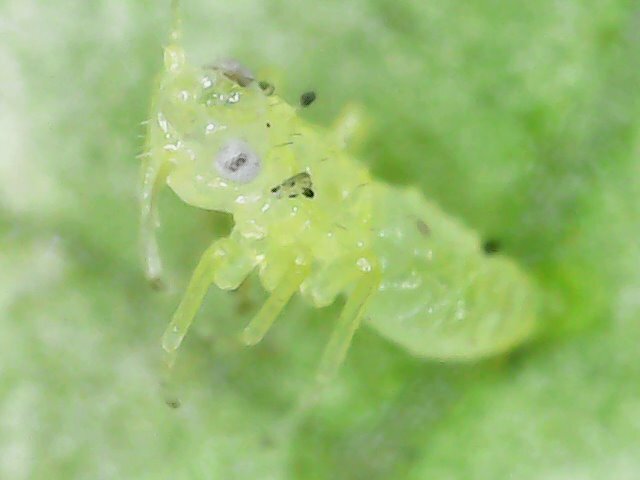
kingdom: Animalia
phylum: Arthropoda
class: Insecta
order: Hemiptera
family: Cicadellidae
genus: Amrasca
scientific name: Amrasca biguttula
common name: Indian cotton jassid
